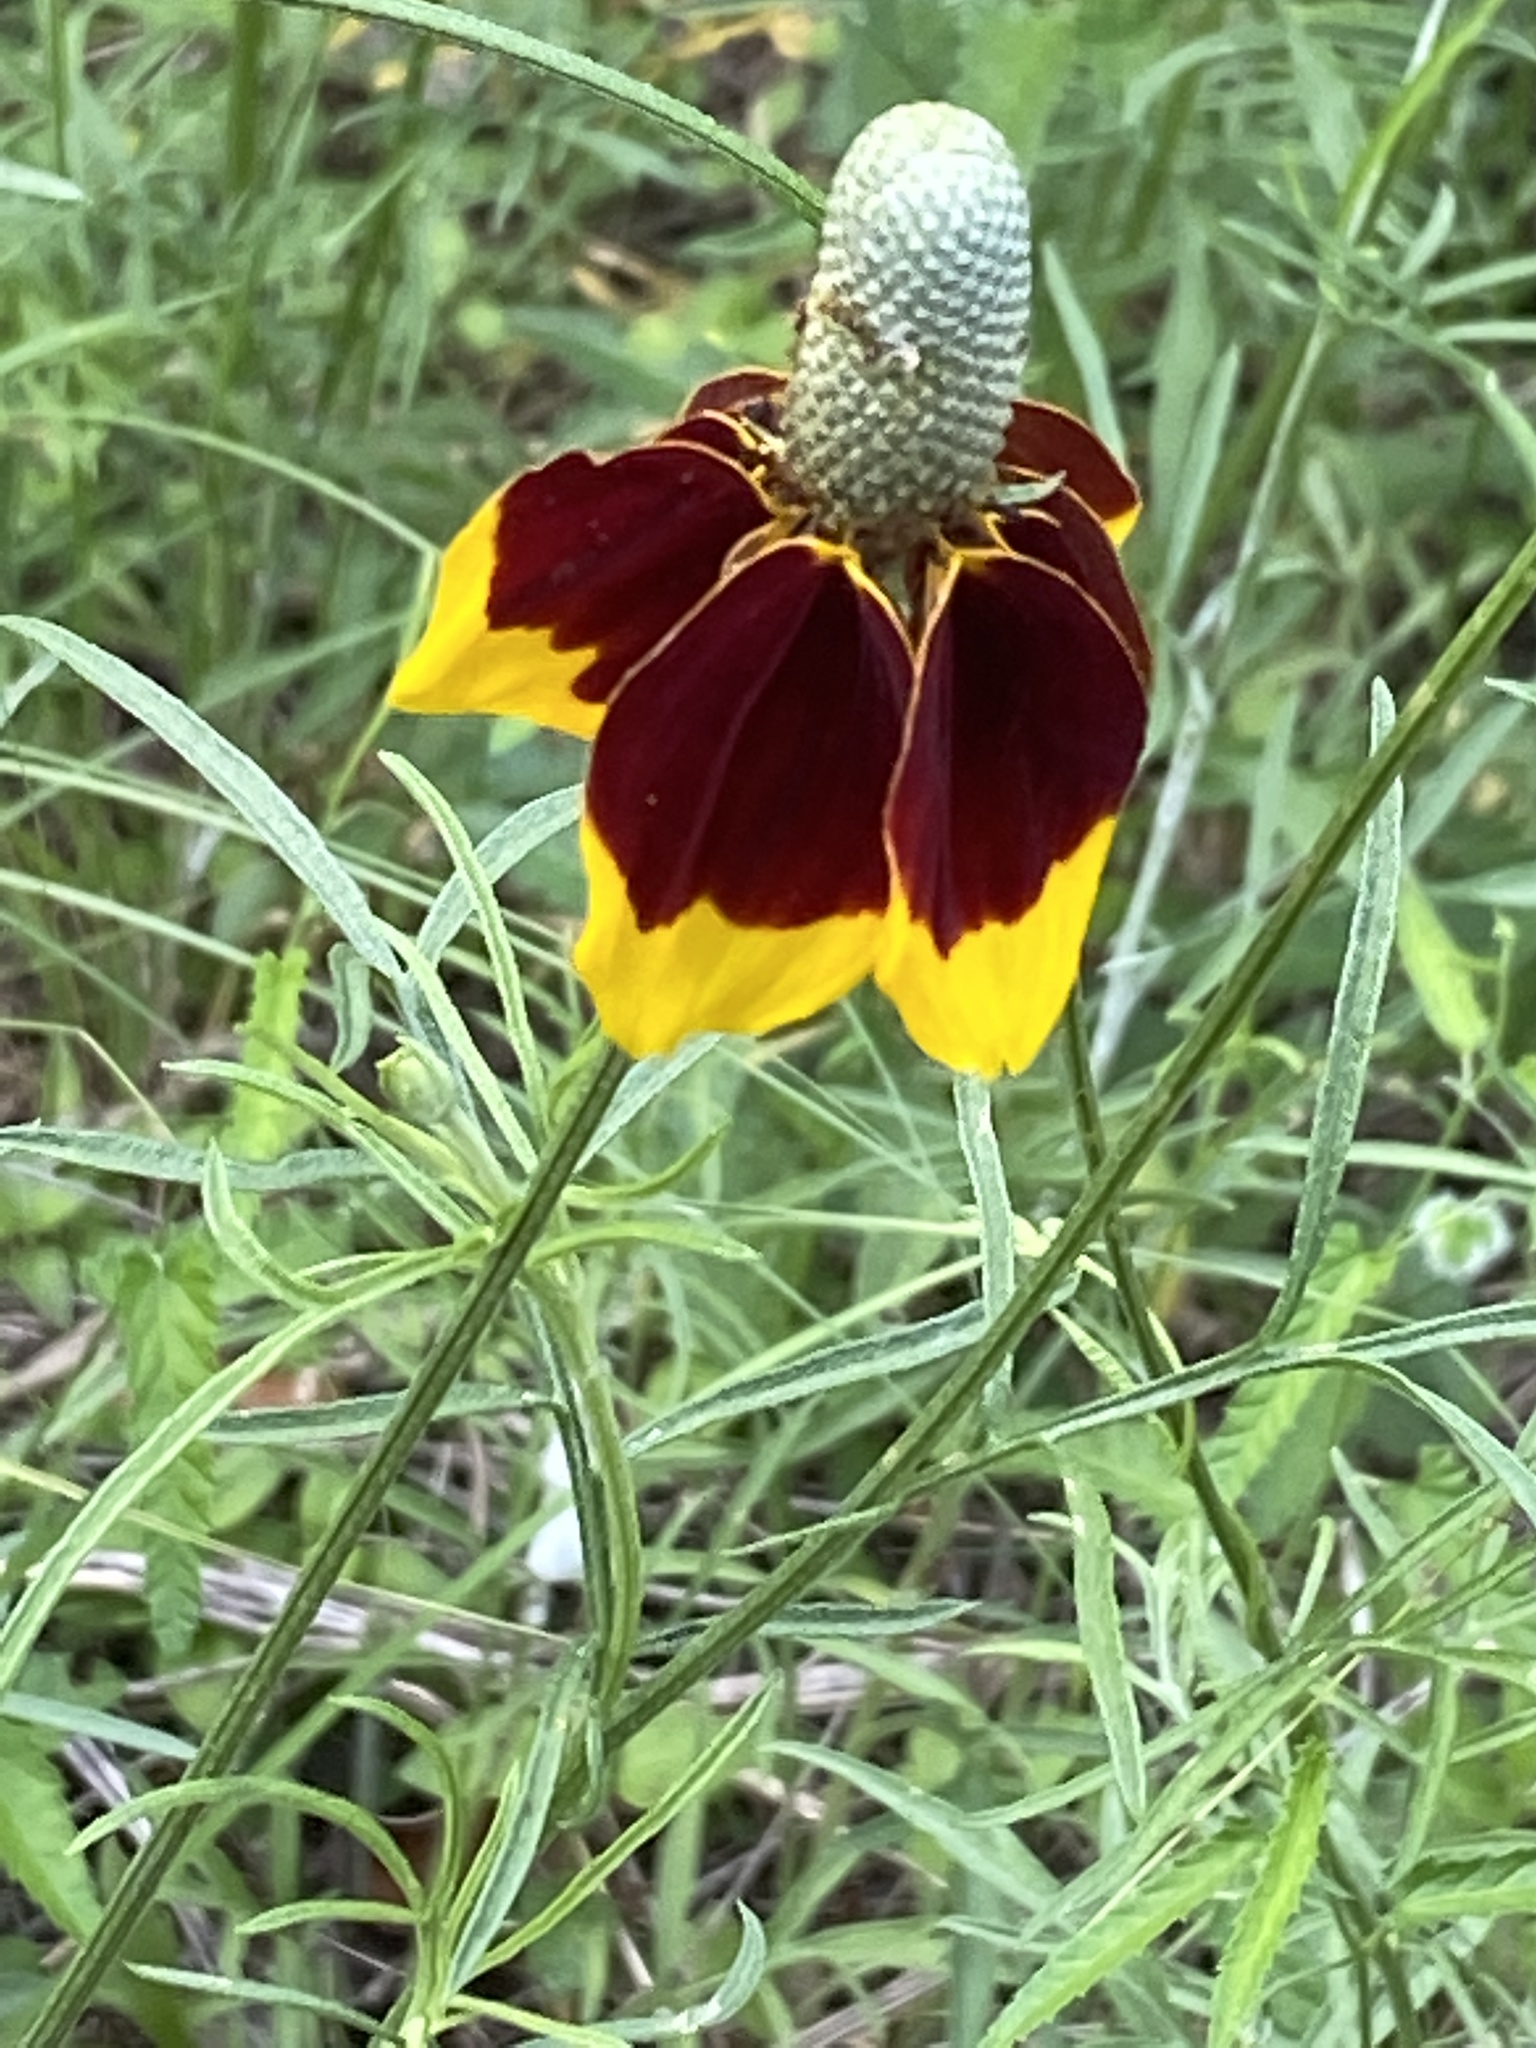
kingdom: Plantae
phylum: Tracheophyta
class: Magnoliopsida
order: Asterales
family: Asteraceae
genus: Ratibida
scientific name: Ratibida columnifera
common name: Prairie coneflower
